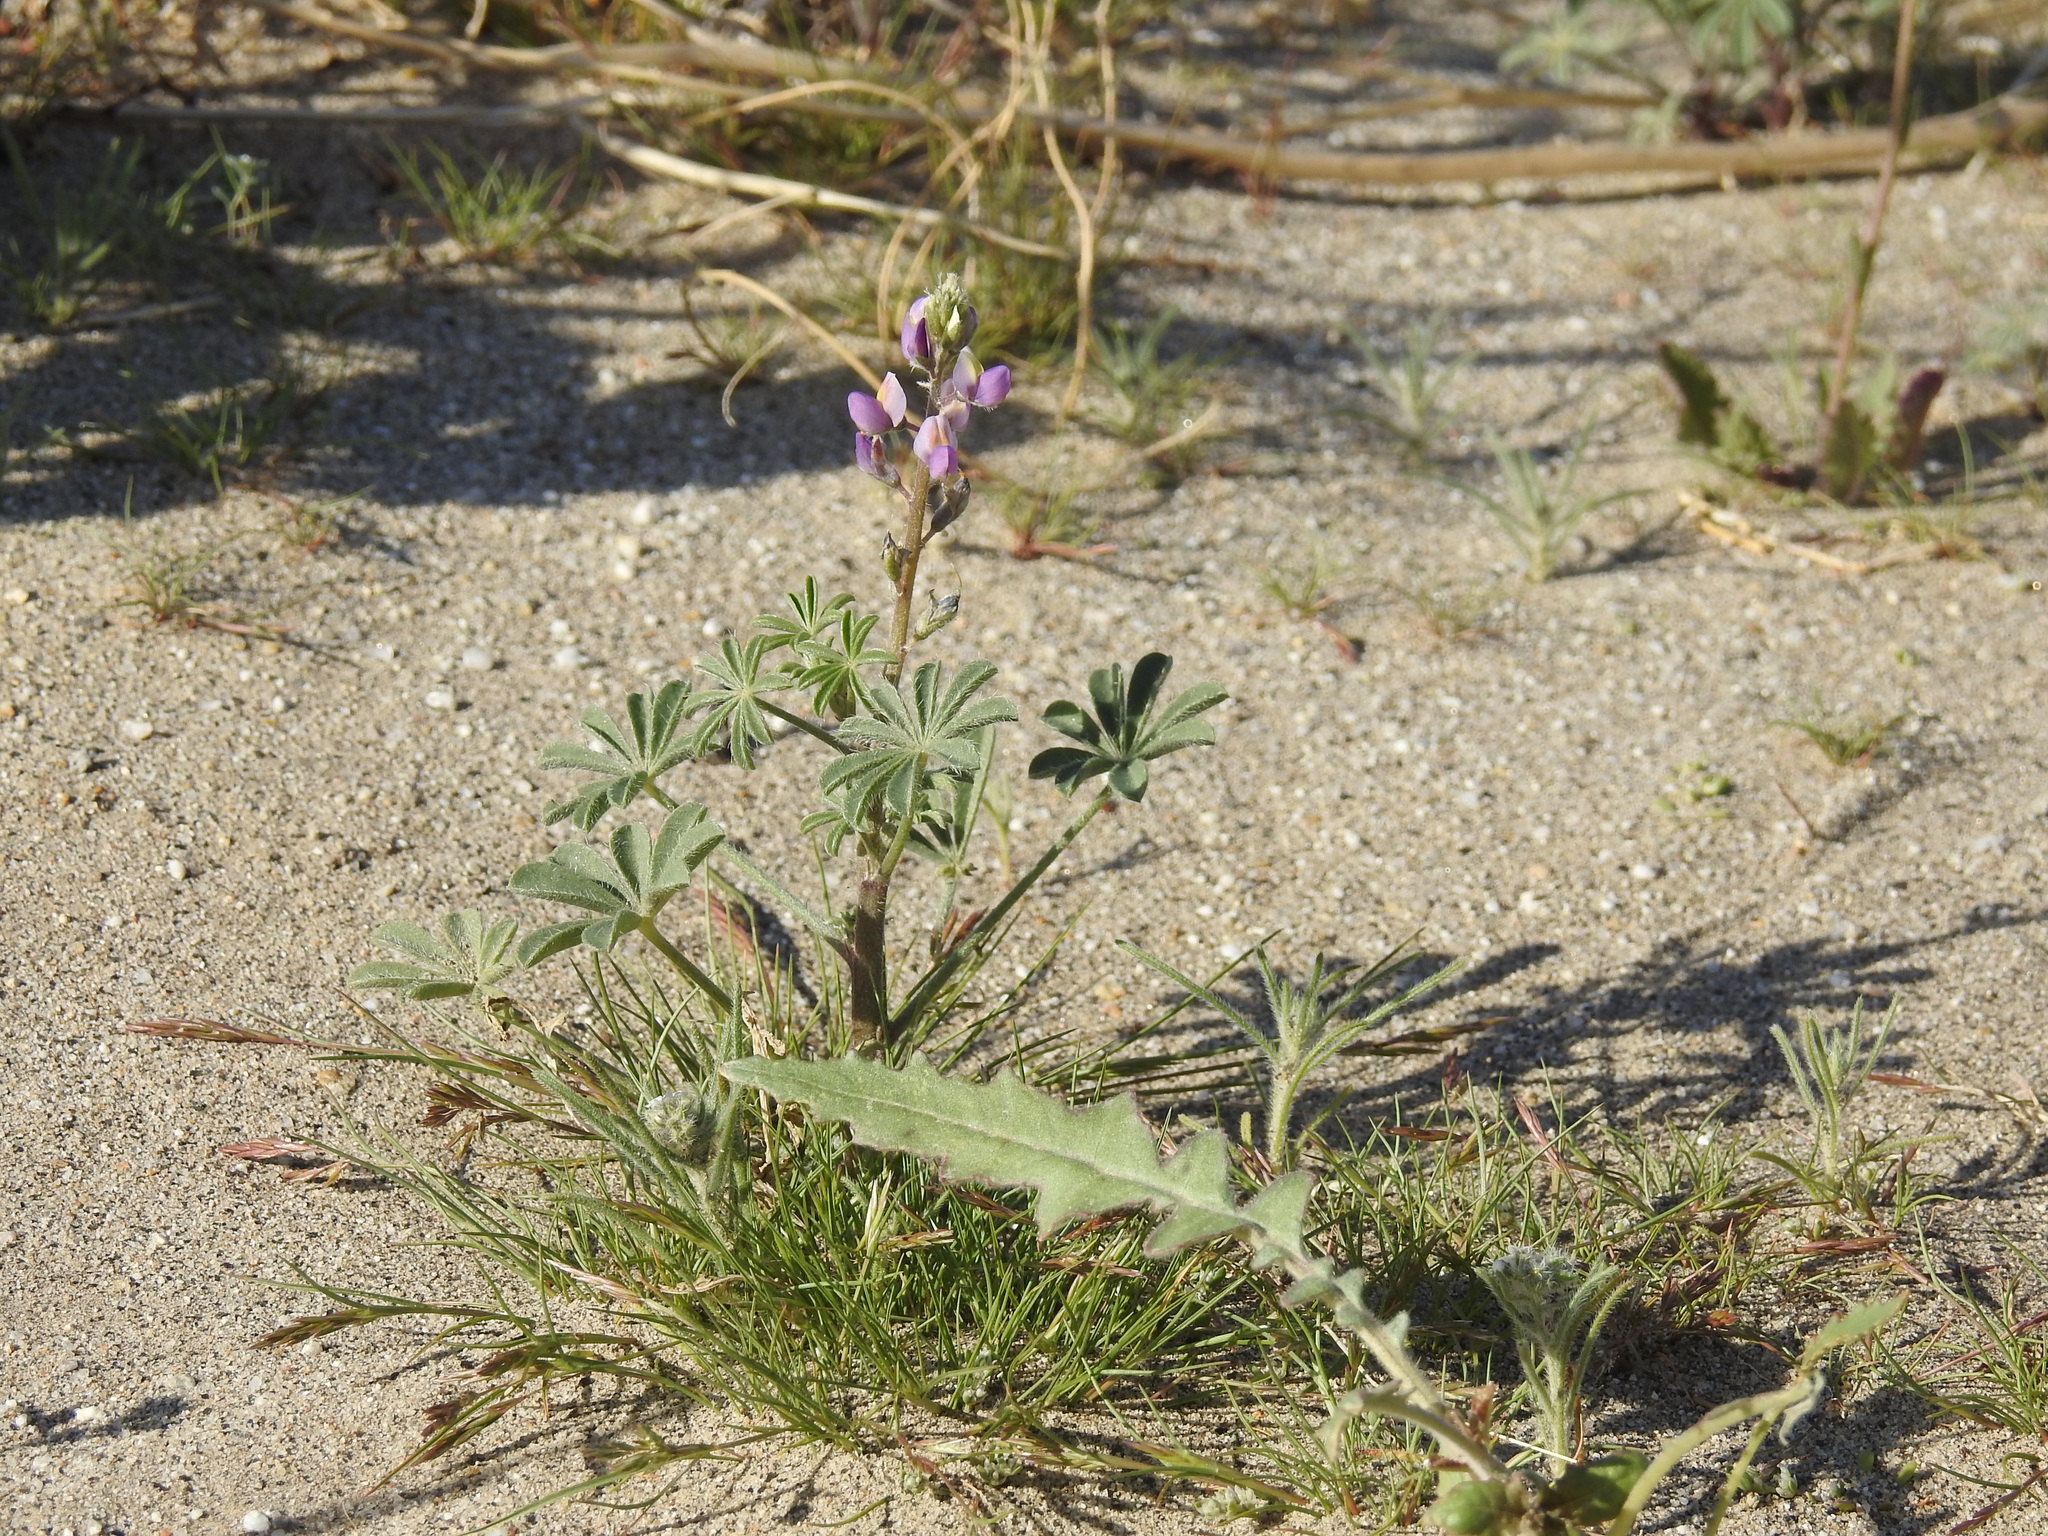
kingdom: Plantae
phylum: Tracheophyta
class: Magnoliopsida
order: Fabales
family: Fabaceae
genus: Lupinus
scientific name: Lupinus arizonicus
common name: Arizona lupine
